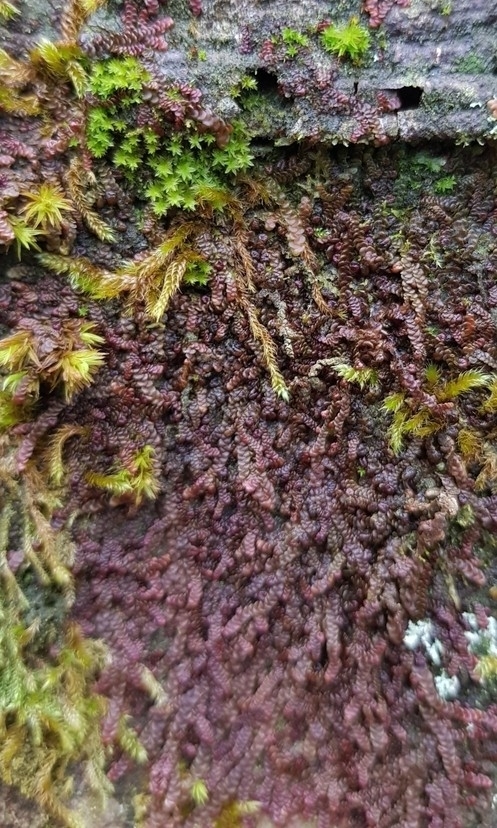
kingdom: Plantae
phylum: Marchantiophyta
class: Jungermanniopsida
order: Porellales
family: Frullaniaceae
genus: Frullania
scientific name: Frullania dilatata
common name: Dilated scalewort
